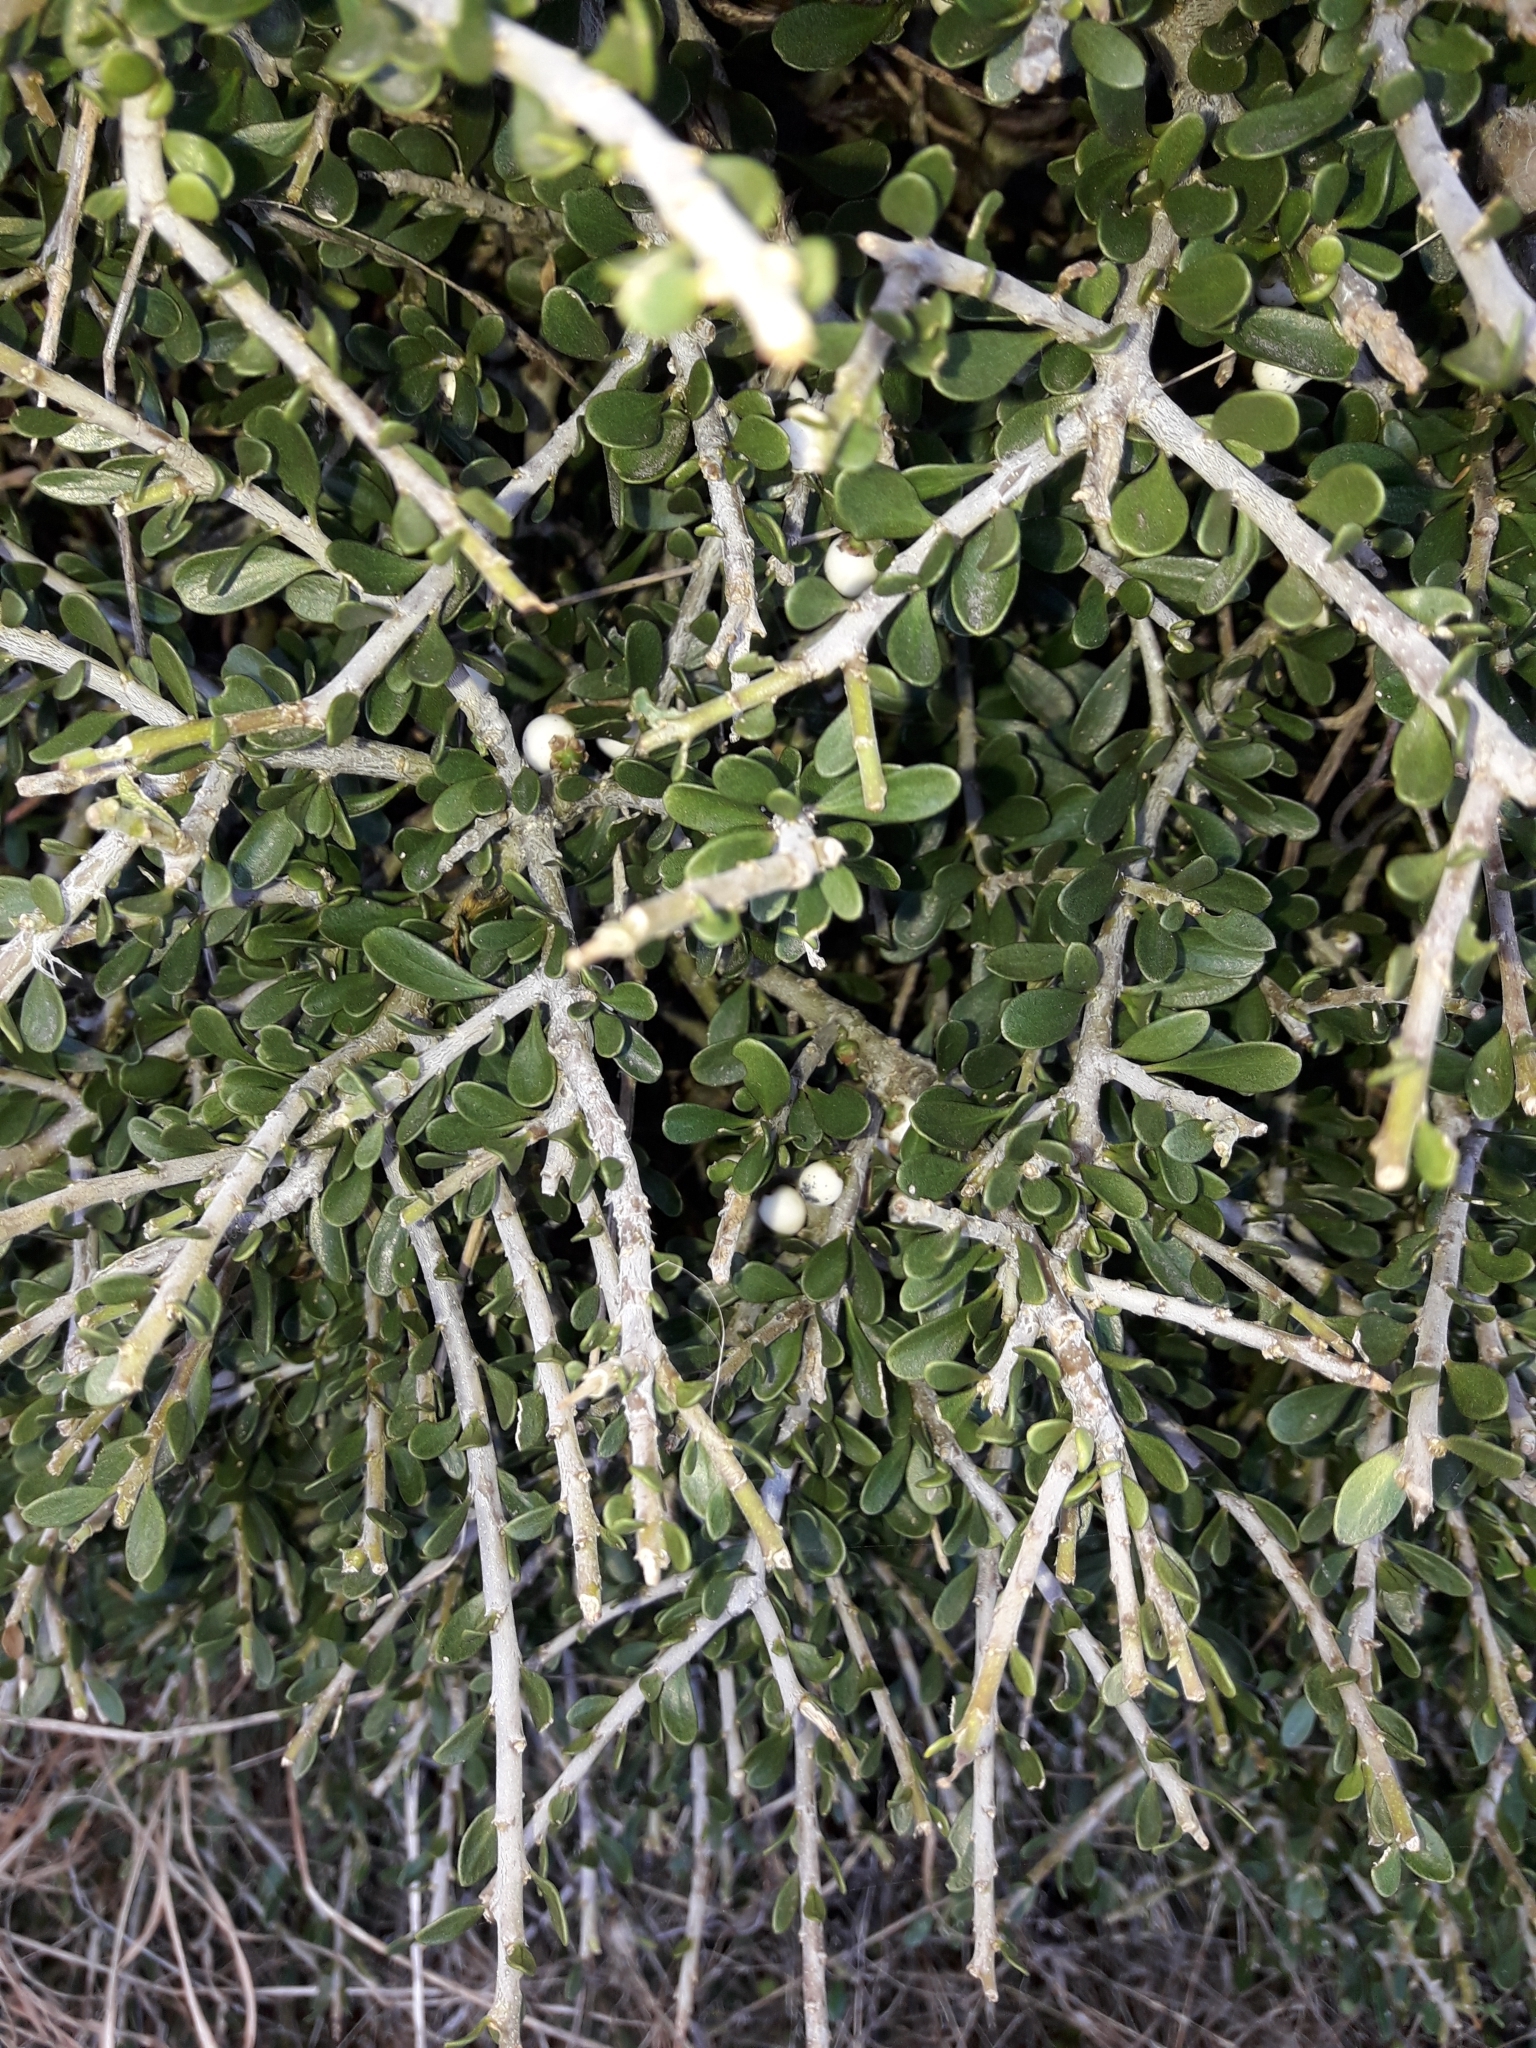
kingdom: Plantae
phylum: Tracheophyta
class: Magnoliopsida
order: Malpighiales
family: Violaceae
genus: Melicytus
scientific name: Melicytus crassifolius
